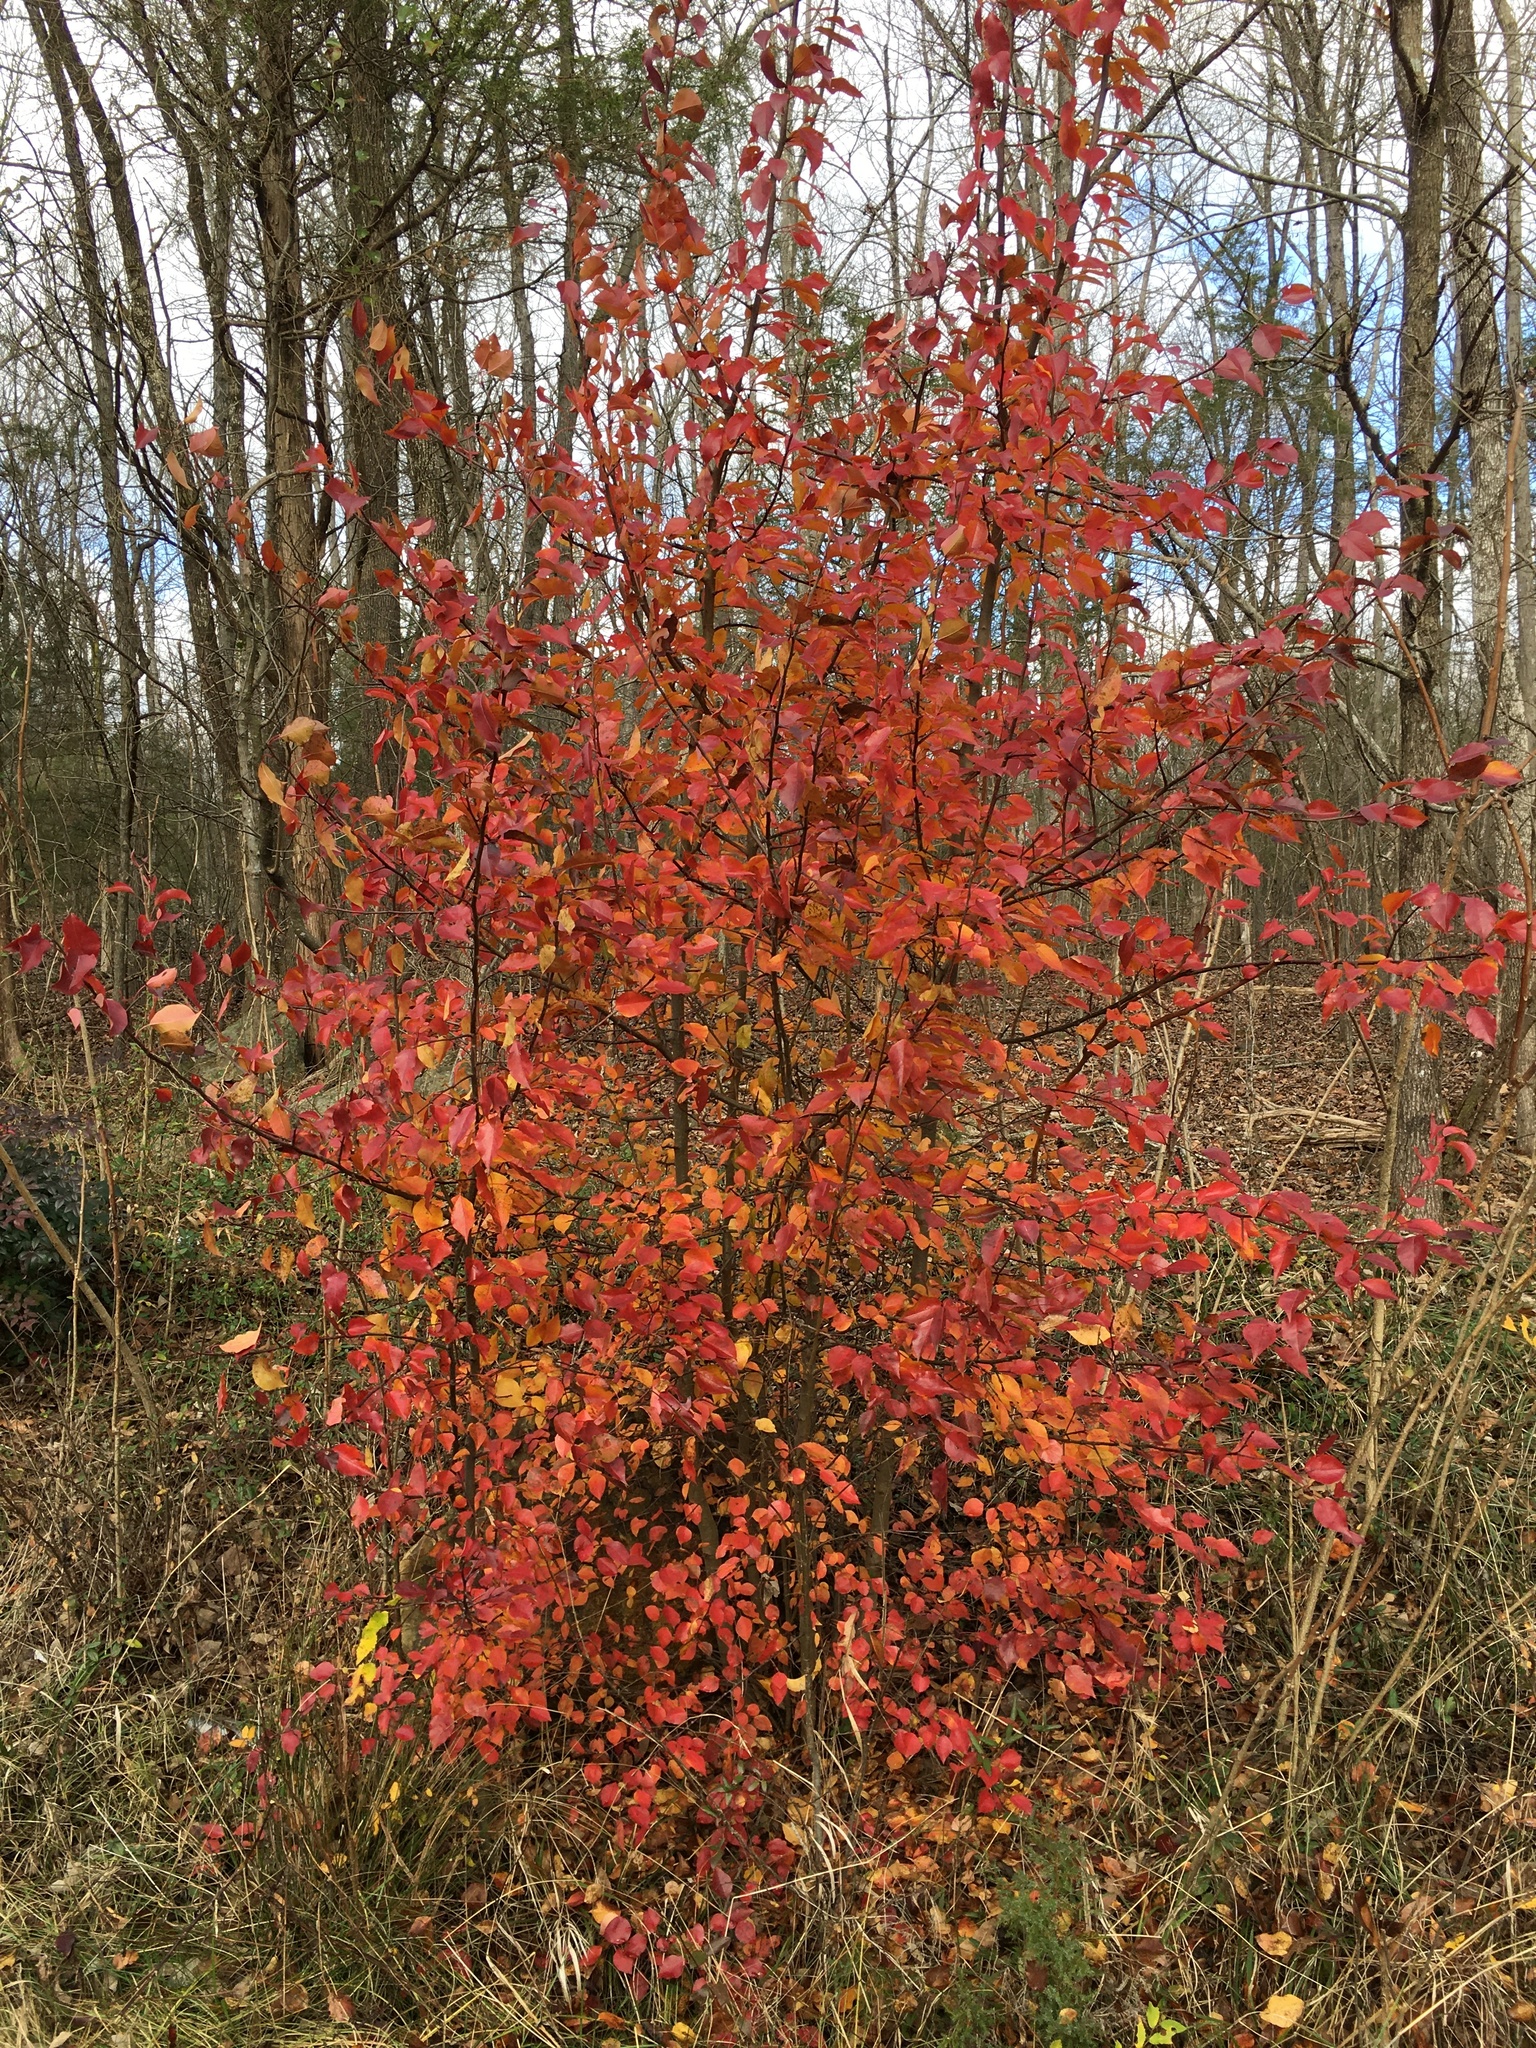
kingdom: Plantae
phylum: Tracheophyta
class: Magnoliopsida
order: Rosales
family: Rosaceae
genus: Pyrus
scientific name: Pyrus calleryana
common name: Callery pear
